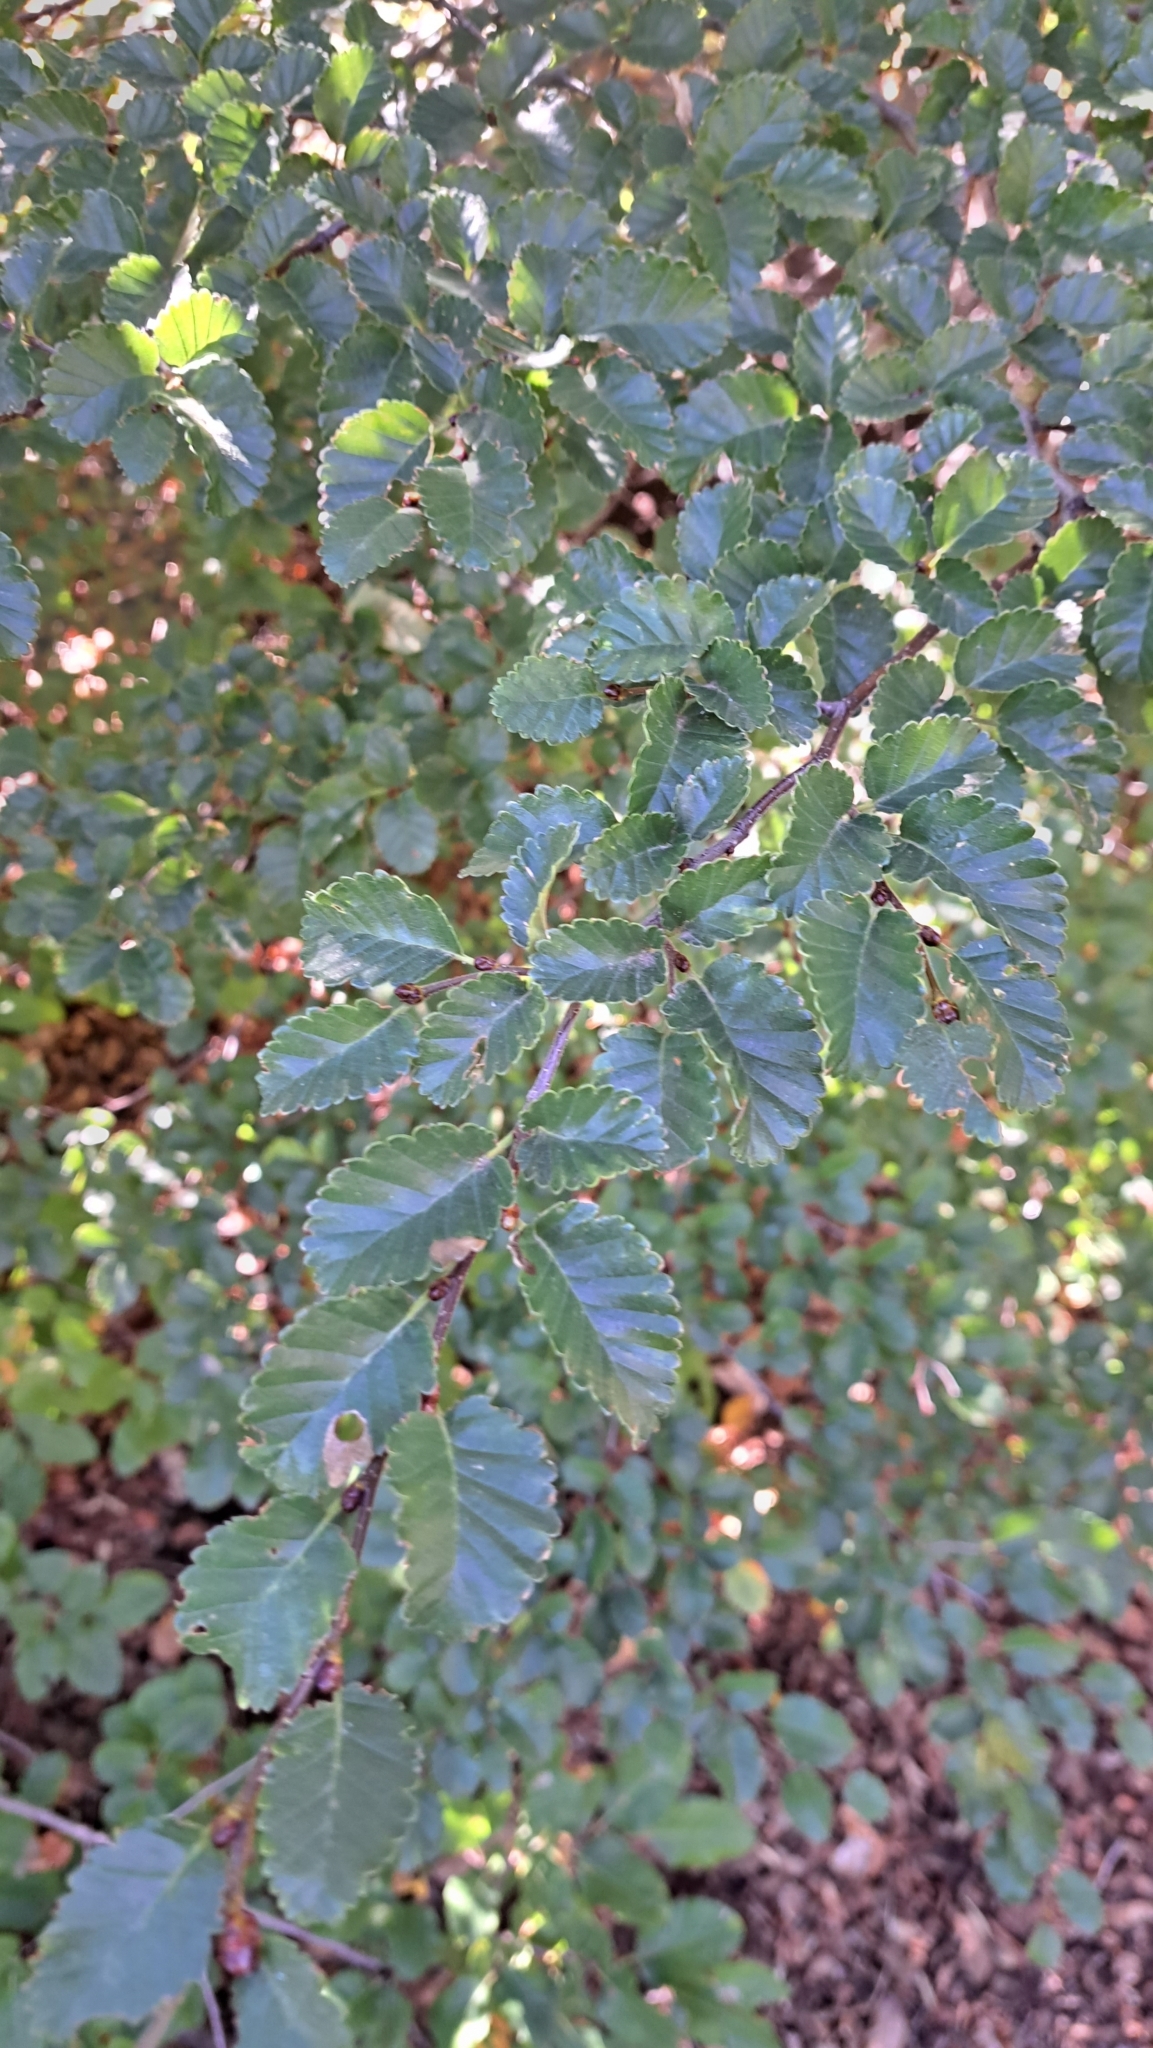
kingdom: Plantae
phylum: Tracheophyta
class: Magnoliopsida
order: Fagales
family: Nothofagaceae
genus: Nothofagus
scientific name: Nothofagus pumilio
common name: Lenga beech
